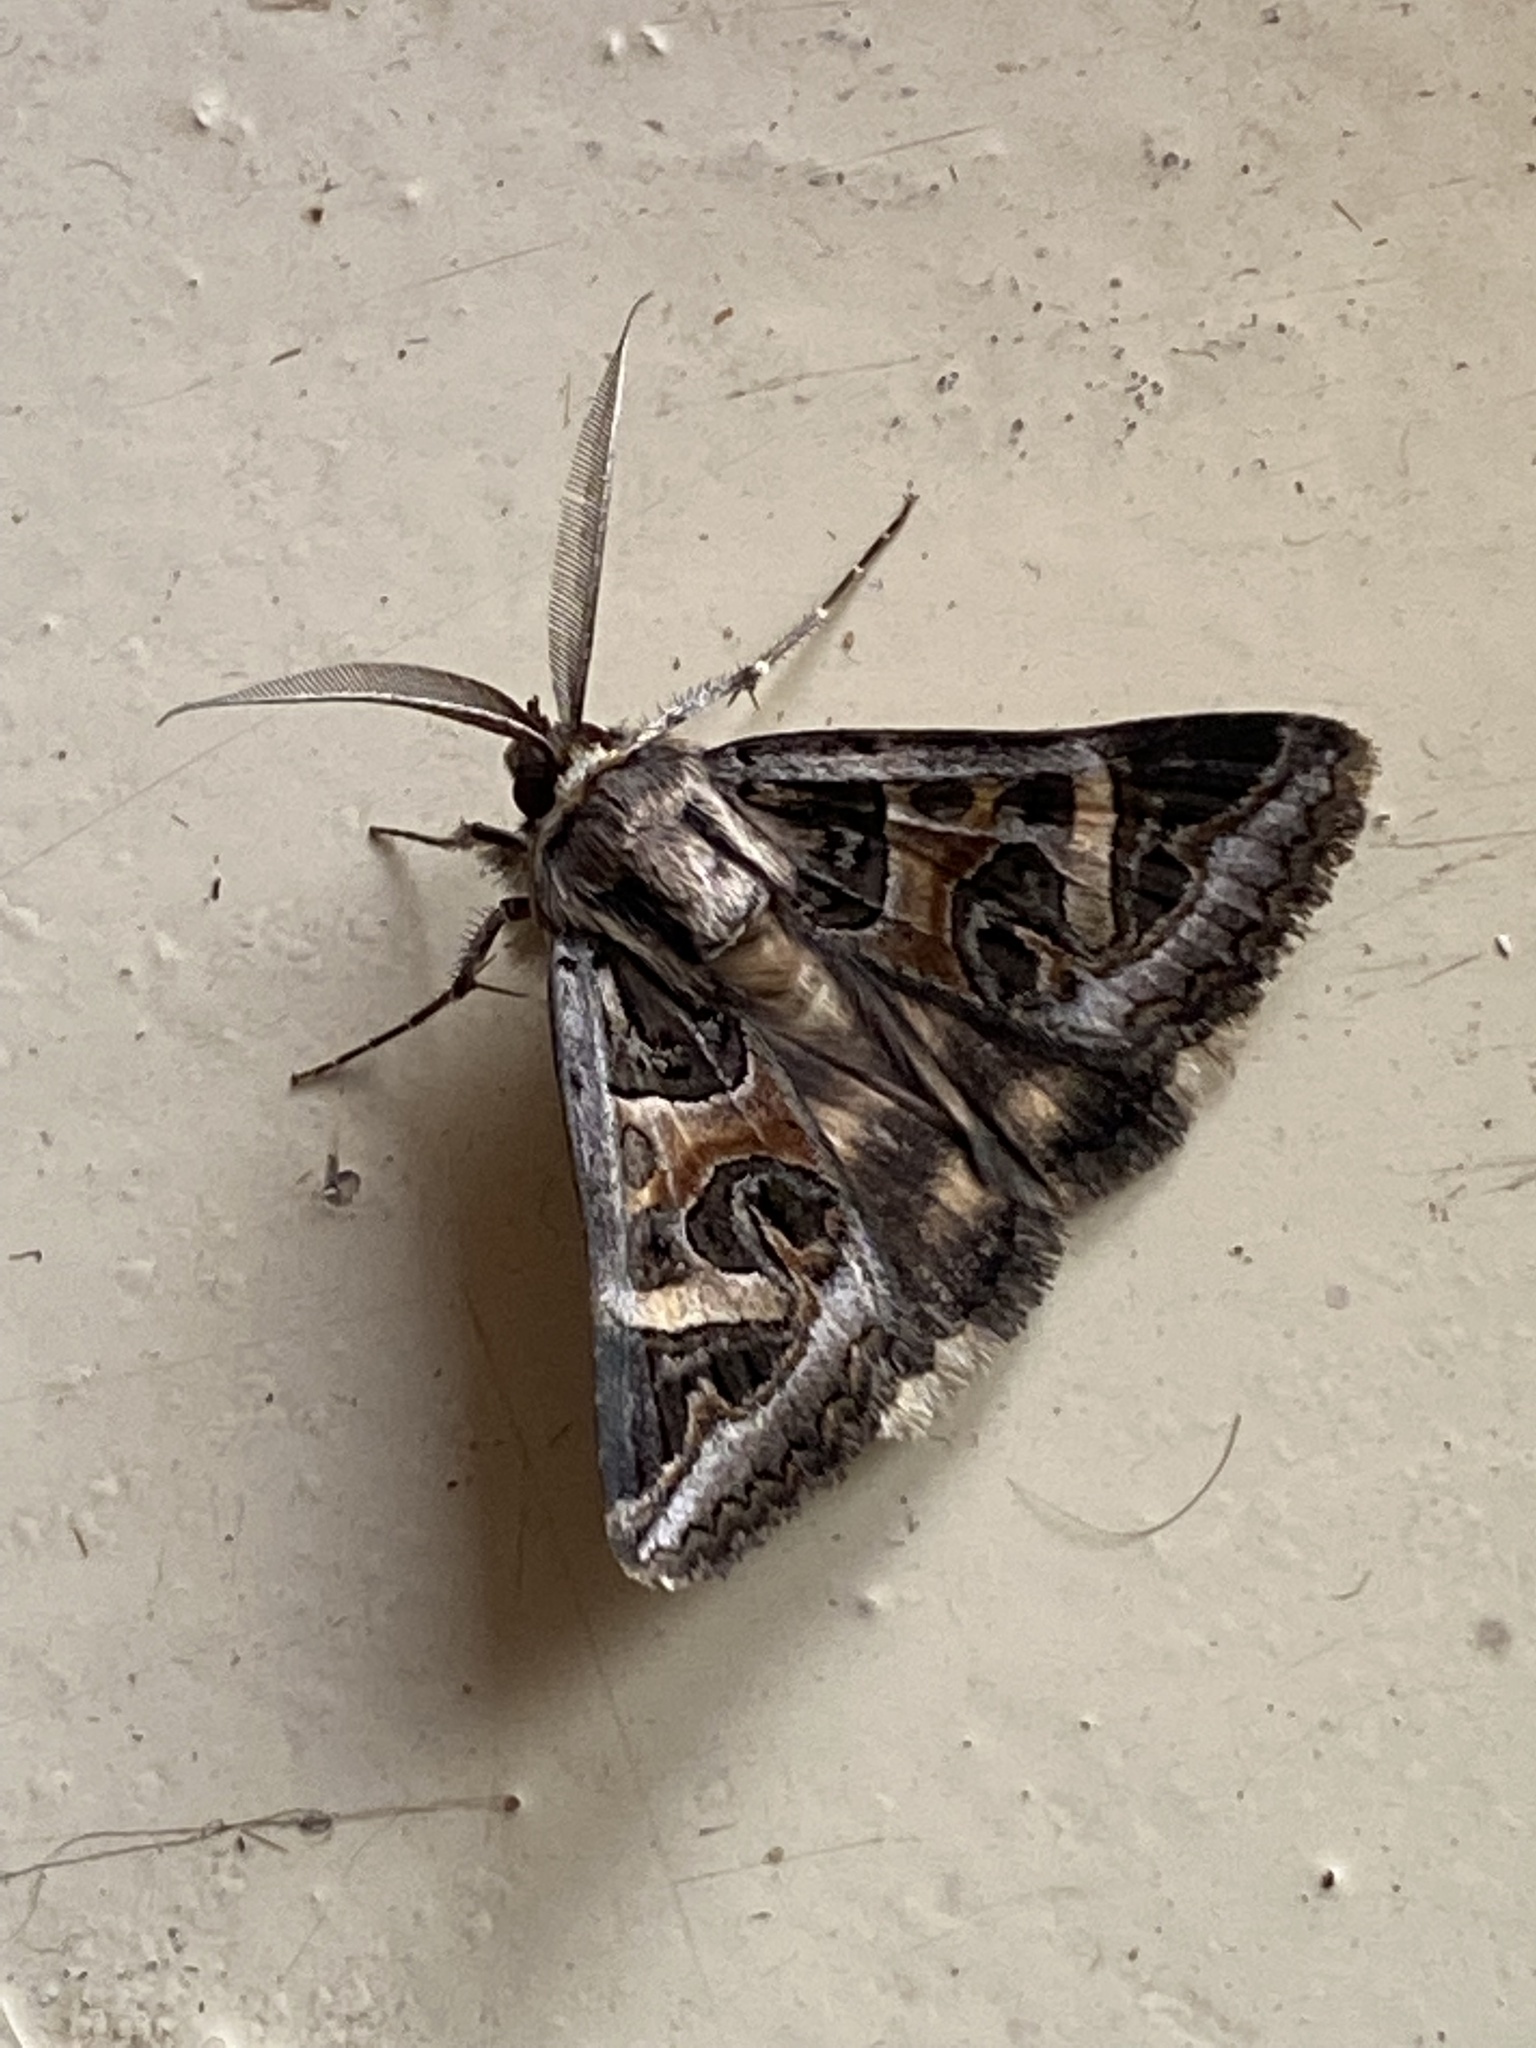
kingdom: Animalia
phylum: Arthropoda
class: Insecta
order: Lepidoptera
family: Erebidae
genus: Cerocala
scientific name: Cerocala vermiculosa
